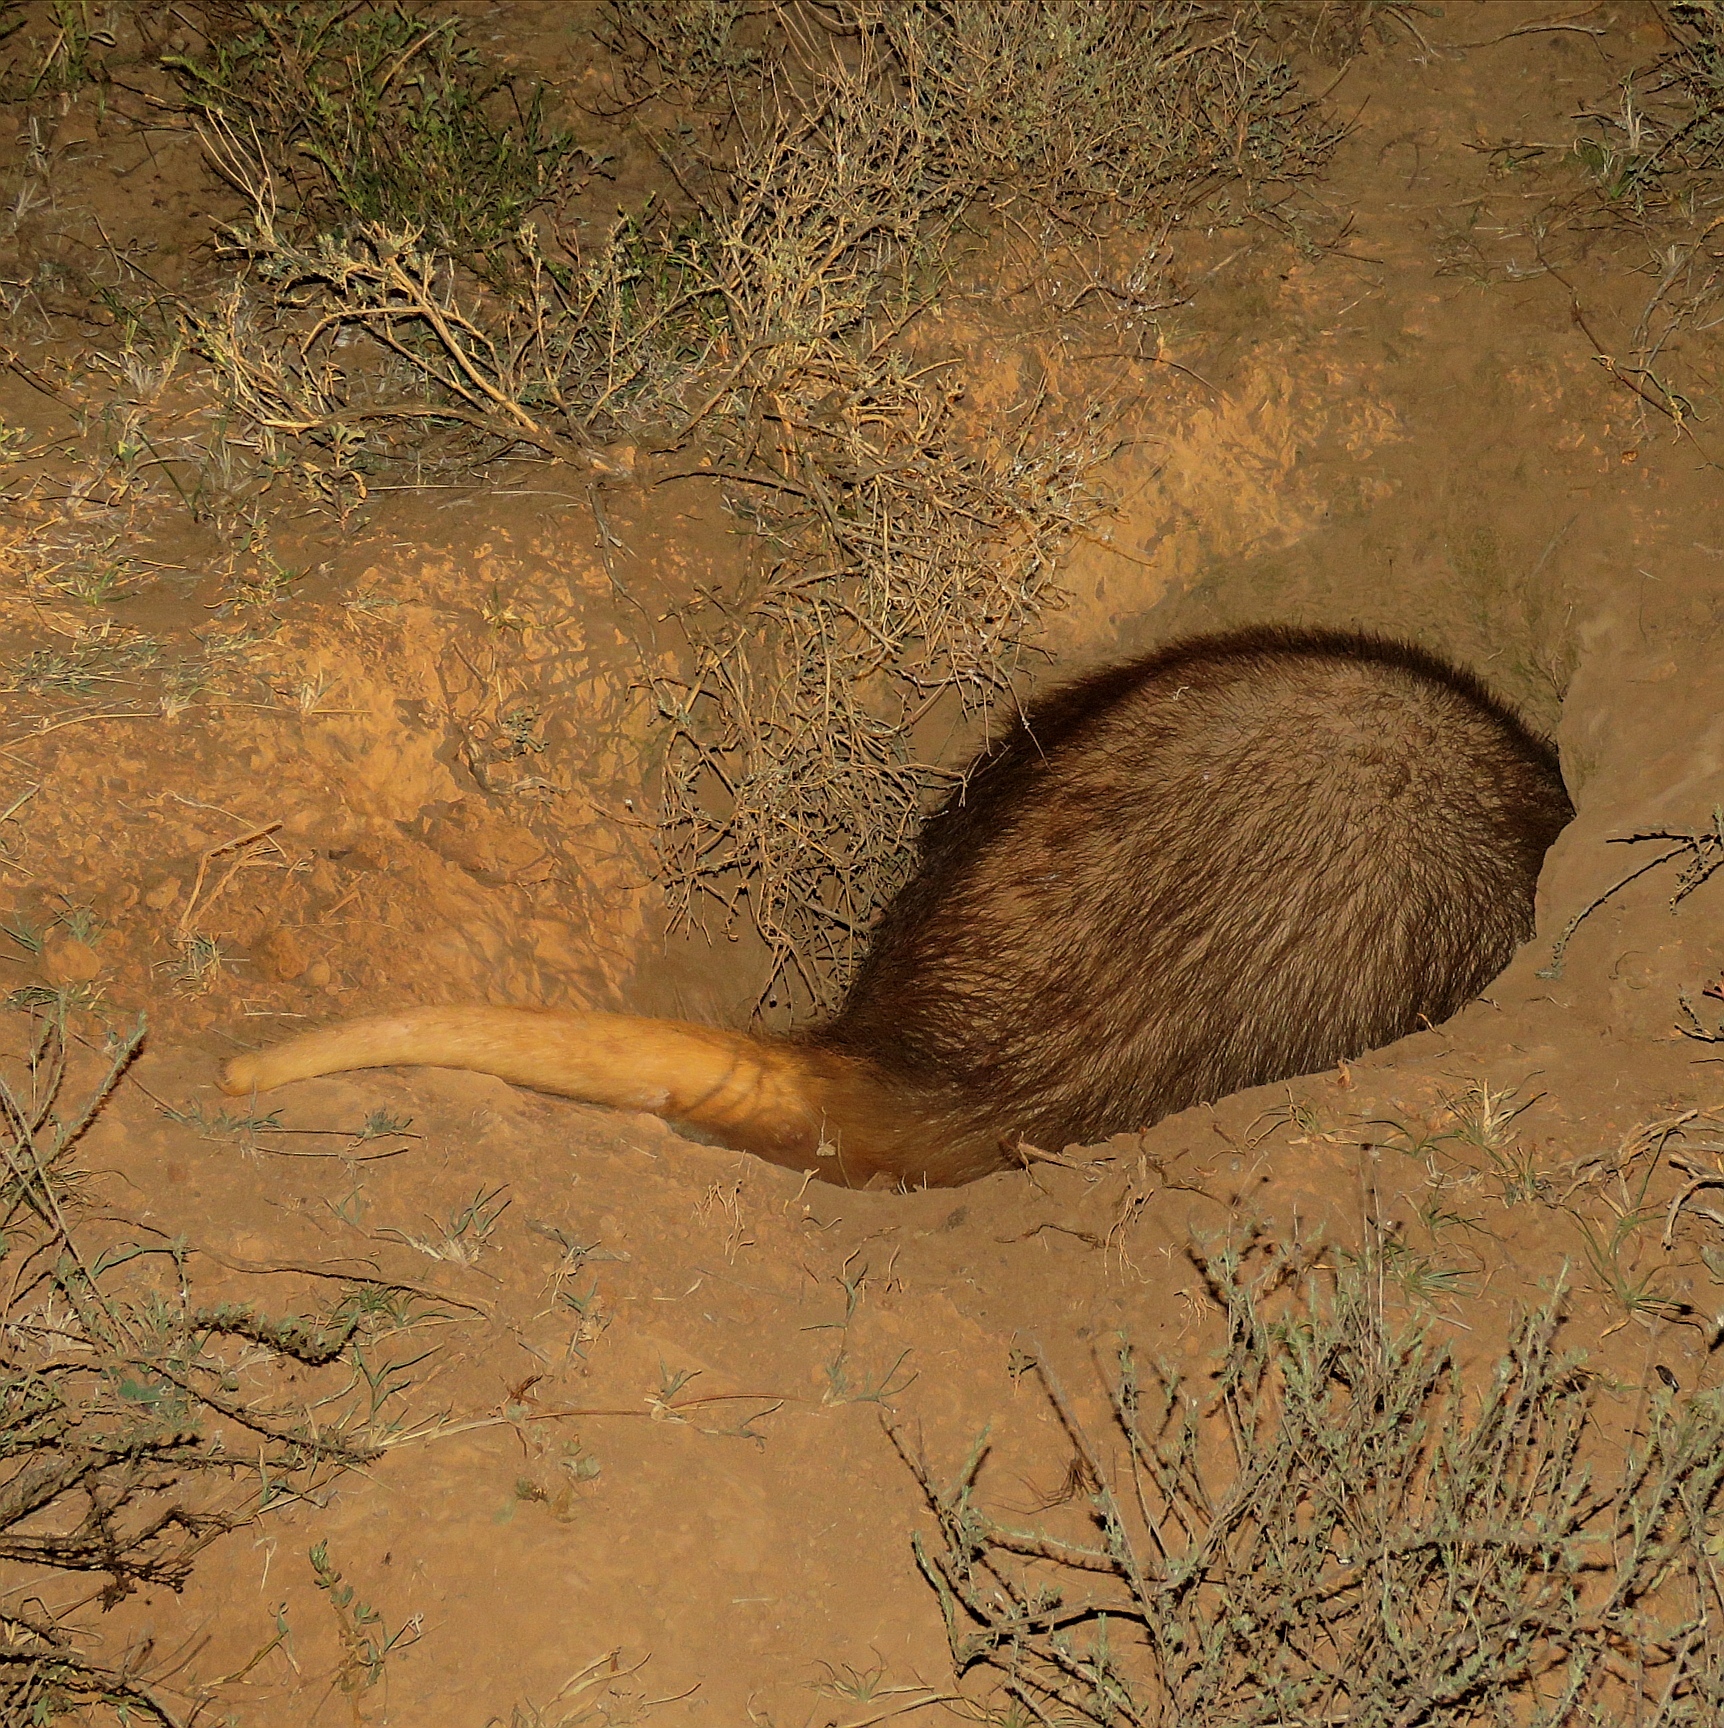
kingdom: Animalia
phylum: Chordata
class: Mammalia
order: Tubulidentata
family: Orycteropodidae
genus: Orycteropus
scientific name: Orycteropus afer
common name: Aardvark
